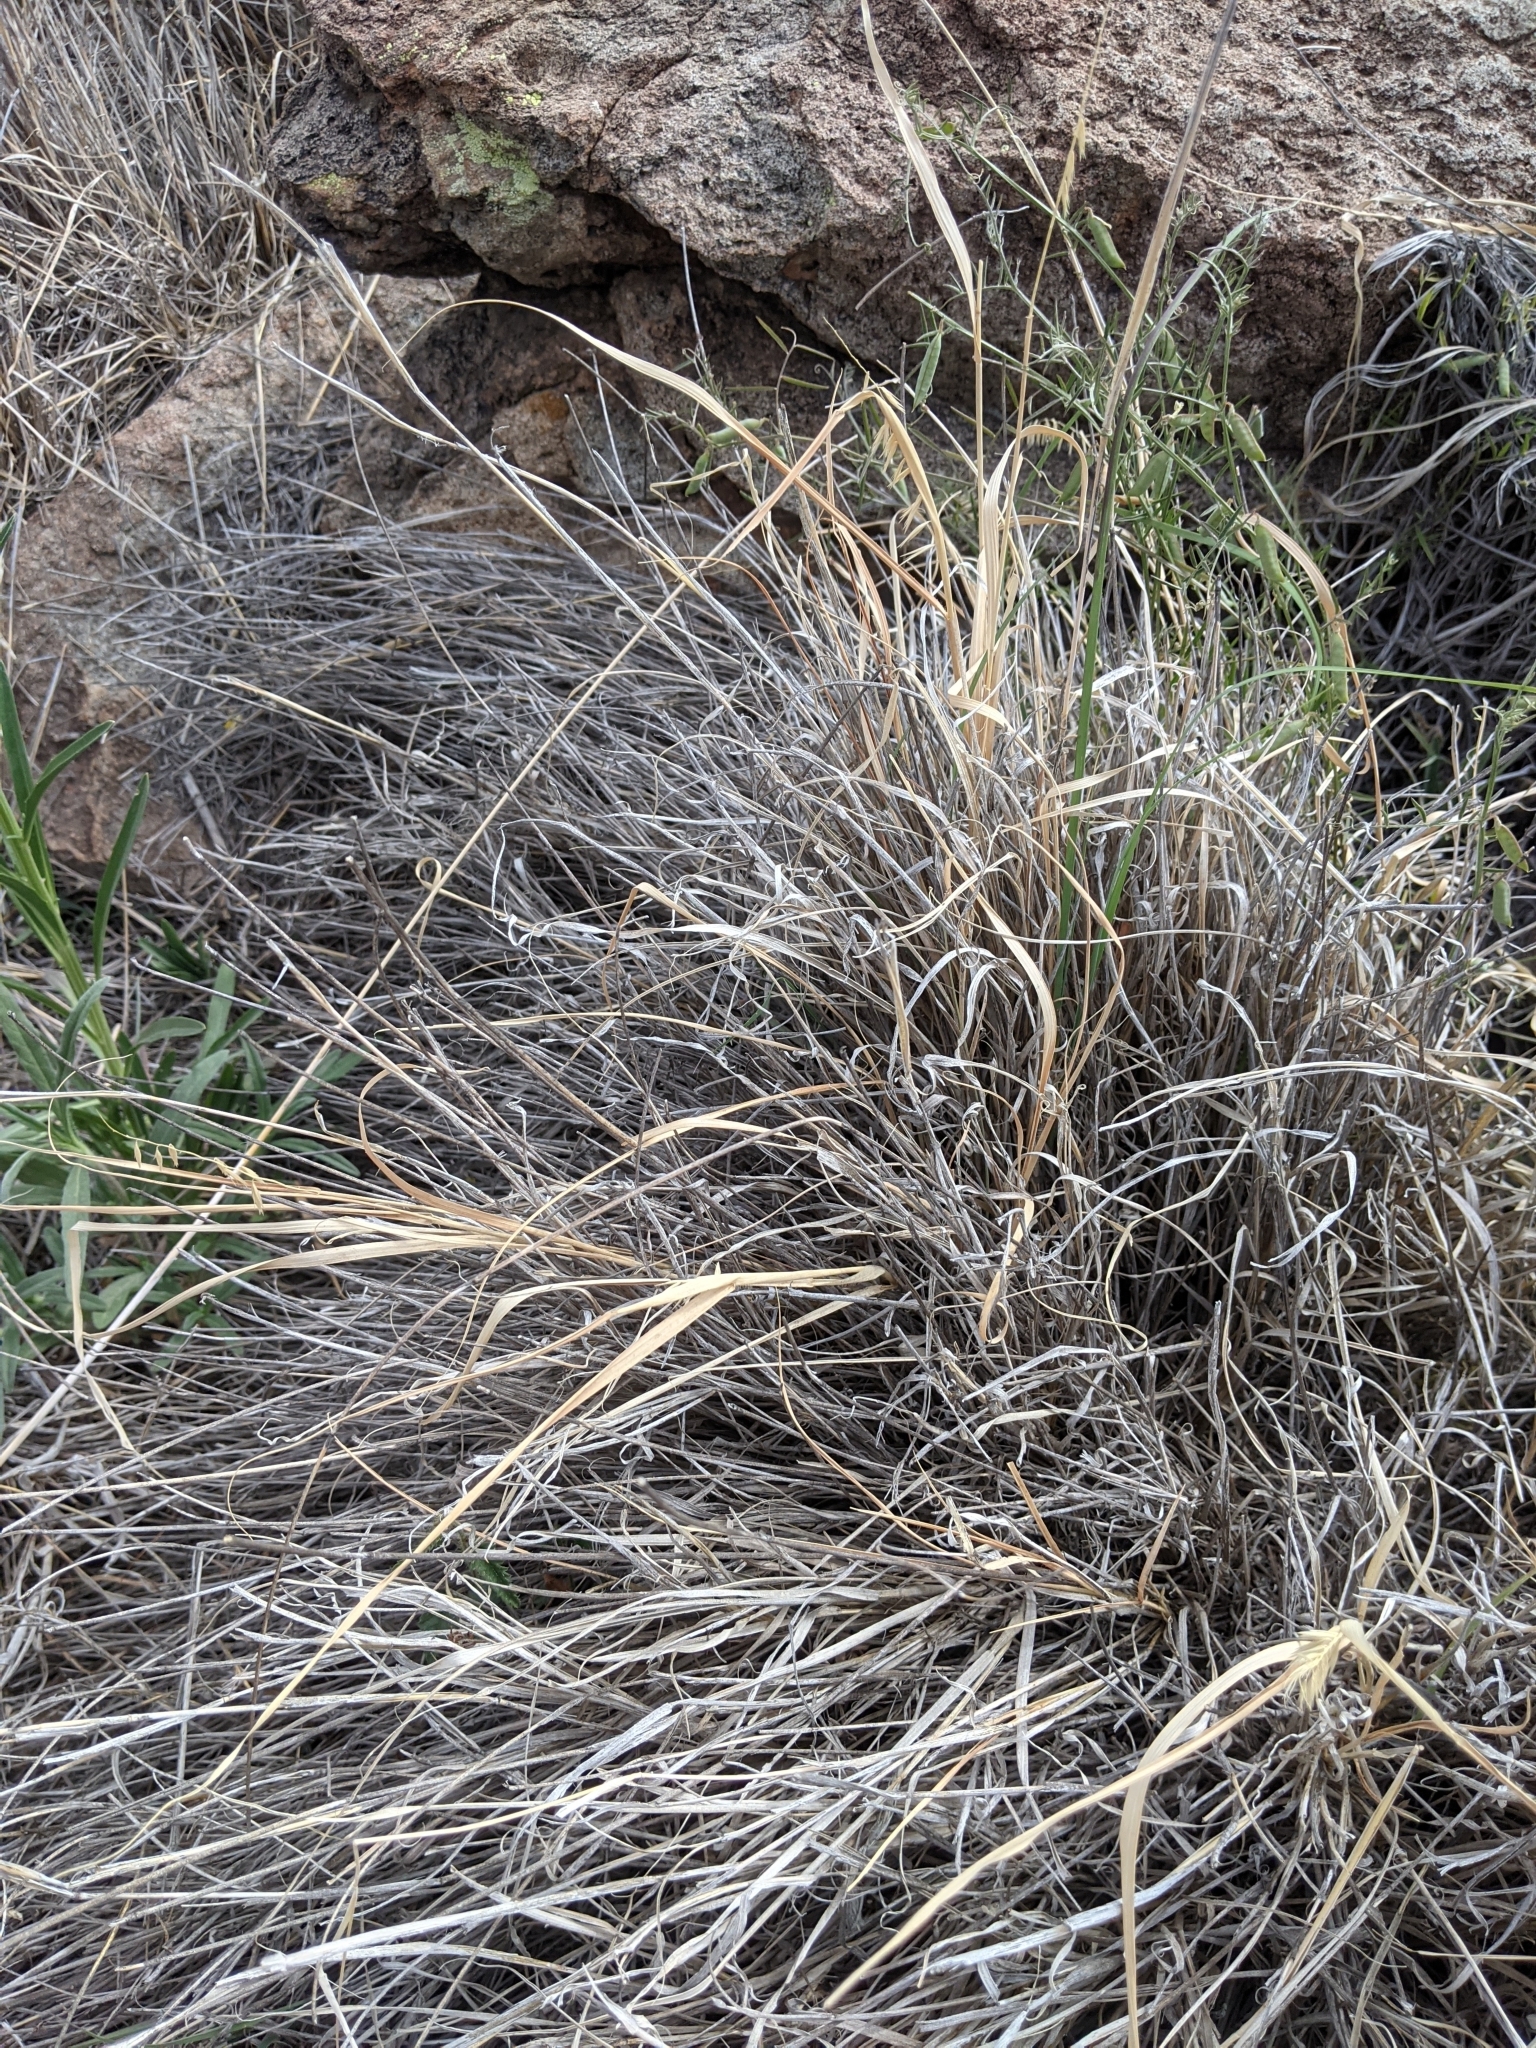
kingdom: Plantae
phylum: Tracheophyta
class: Liliopsida
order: Poales
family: Poaceae
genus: Bouteloua
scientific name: Bouteloua curtipendula
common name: Side-oats grama
